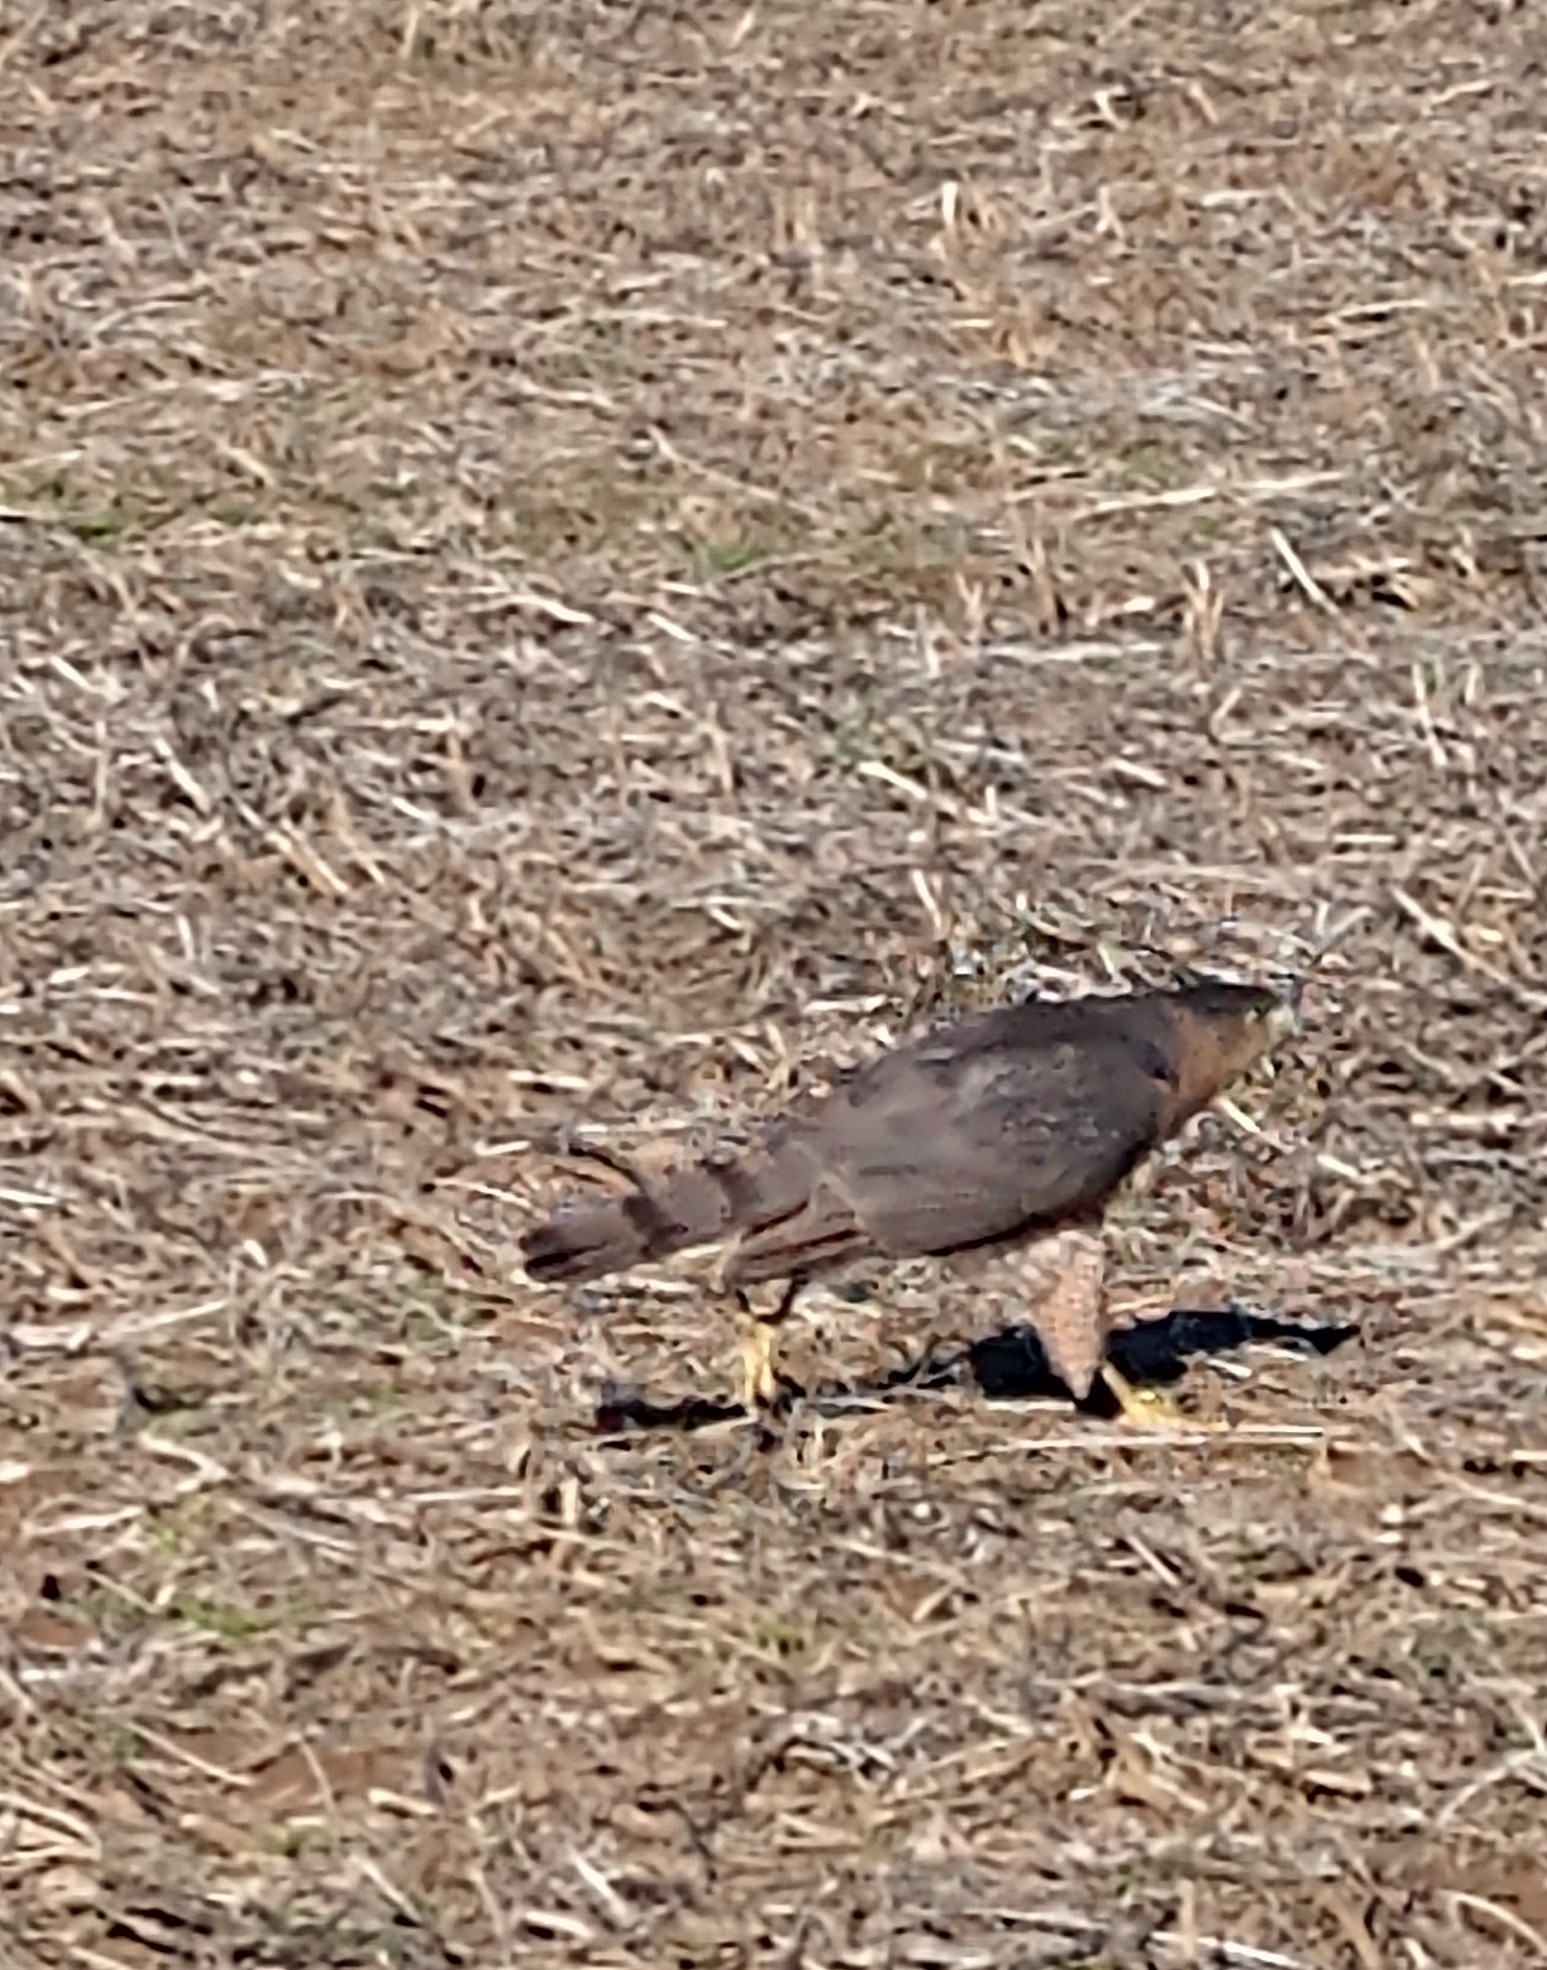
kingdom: Animalia
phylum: Chordata
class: Aves
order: Accipitriformes
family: Accipitridae
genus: Accipiter
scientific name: Accipiter cooperii
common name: Cooper's hawk
